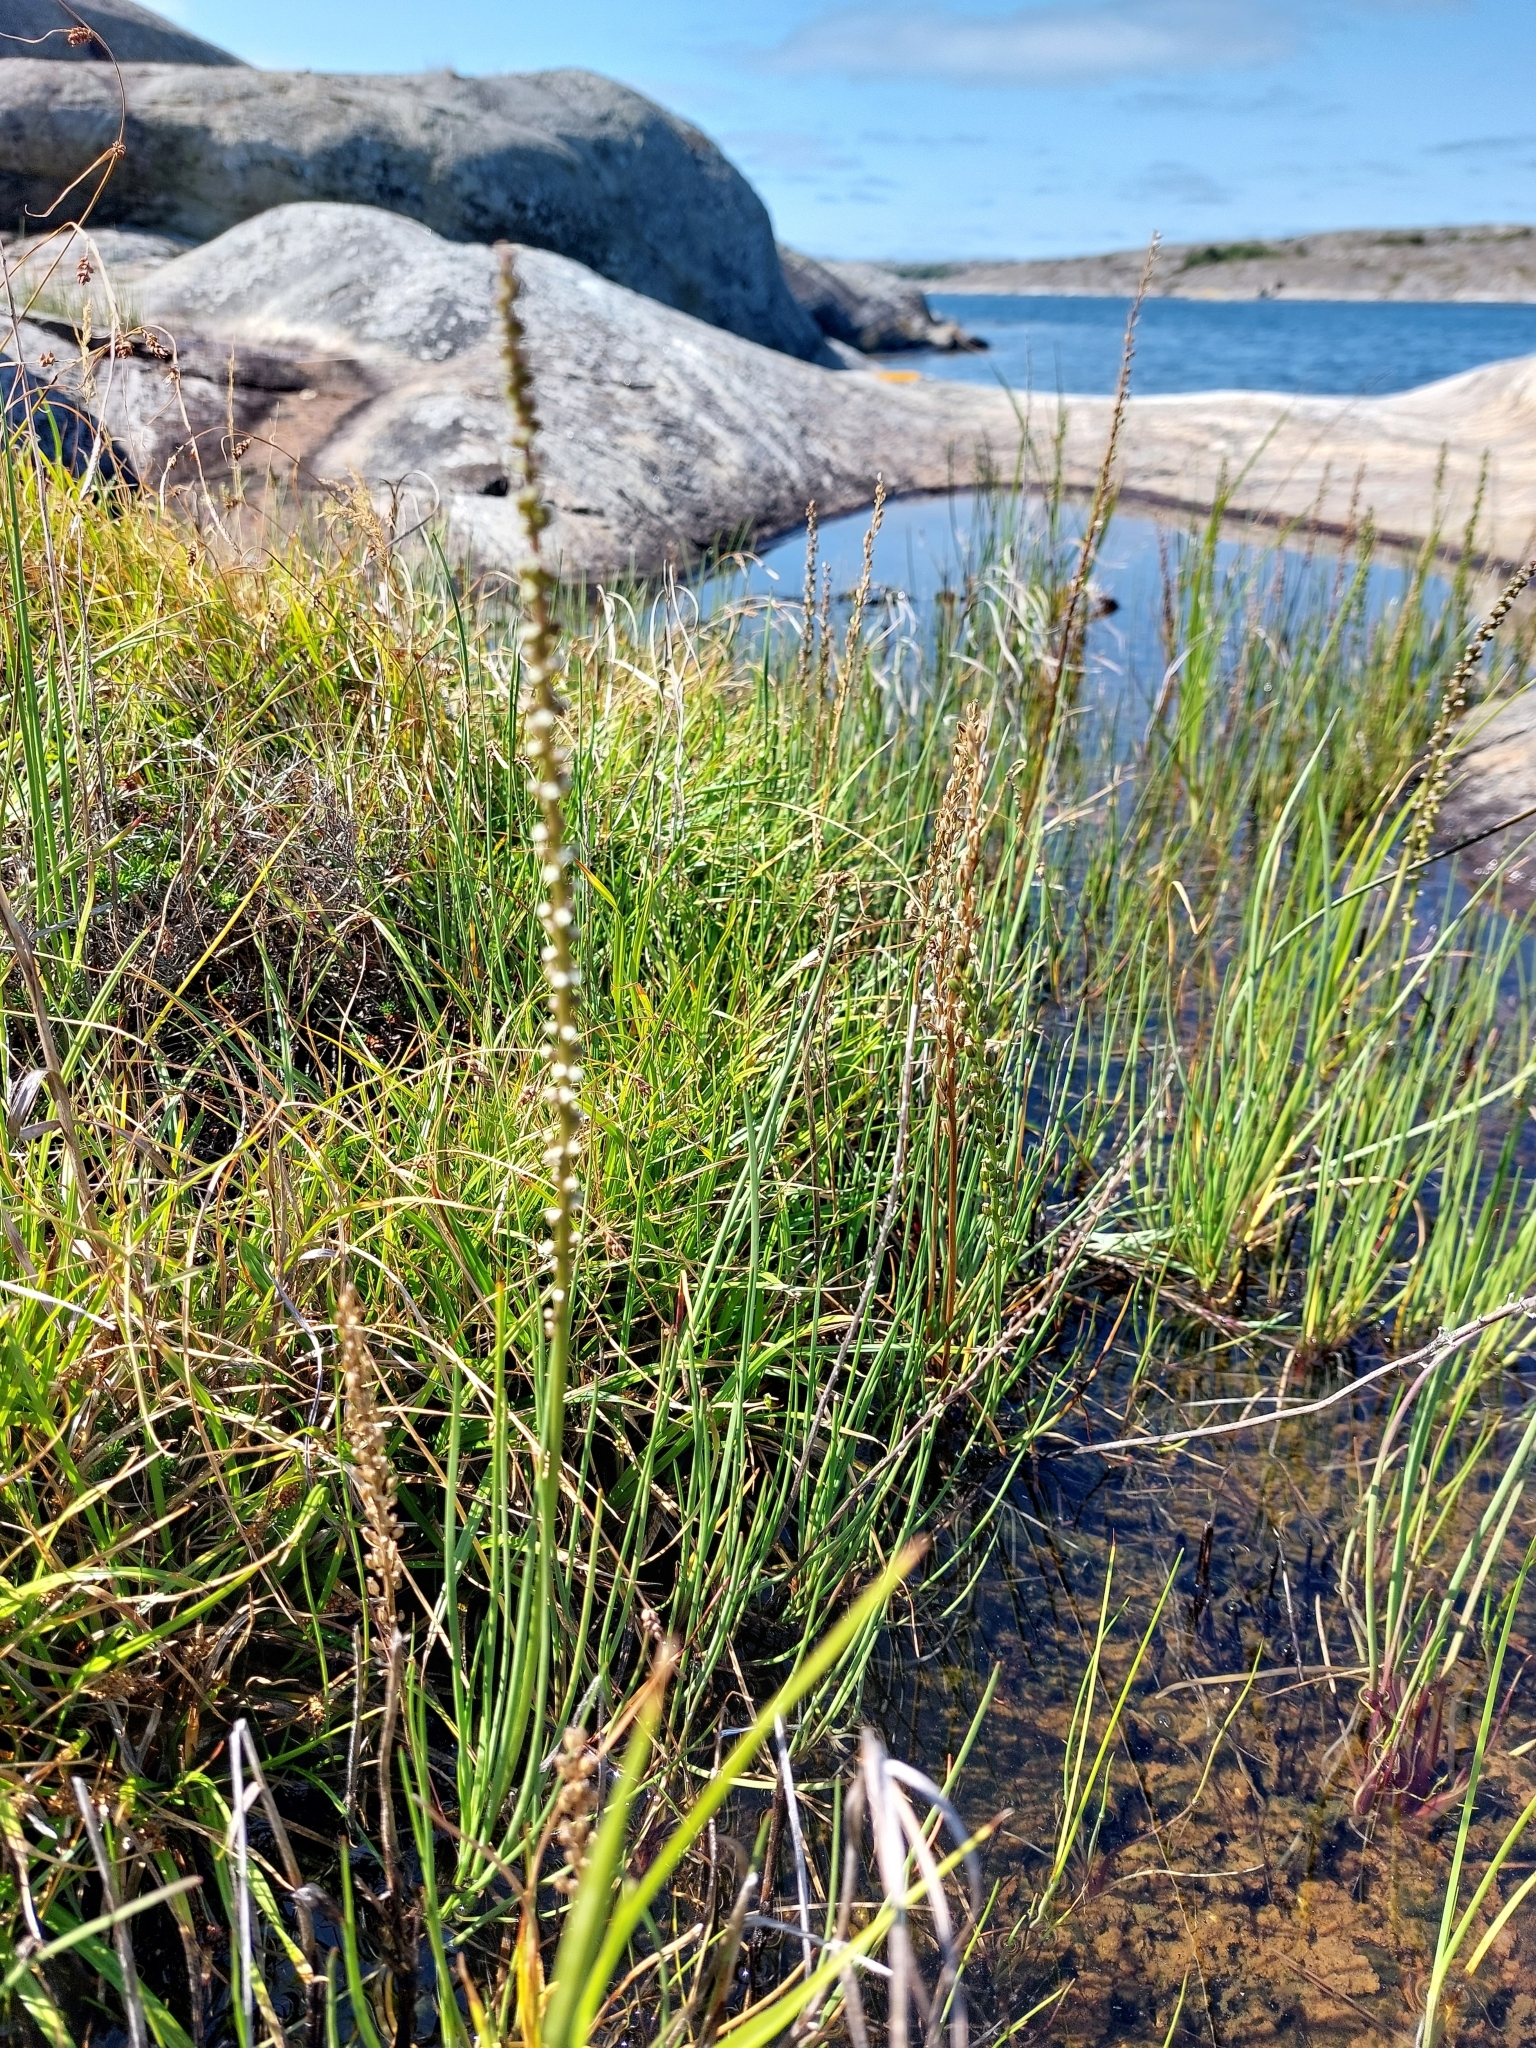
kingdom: Plantae
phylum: Tracheophyta
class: Liliopsida
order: Alismatales
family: Juncaginaceae
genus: Triglochin
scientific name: Triglochin maritima
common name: Sea arrowgrass
